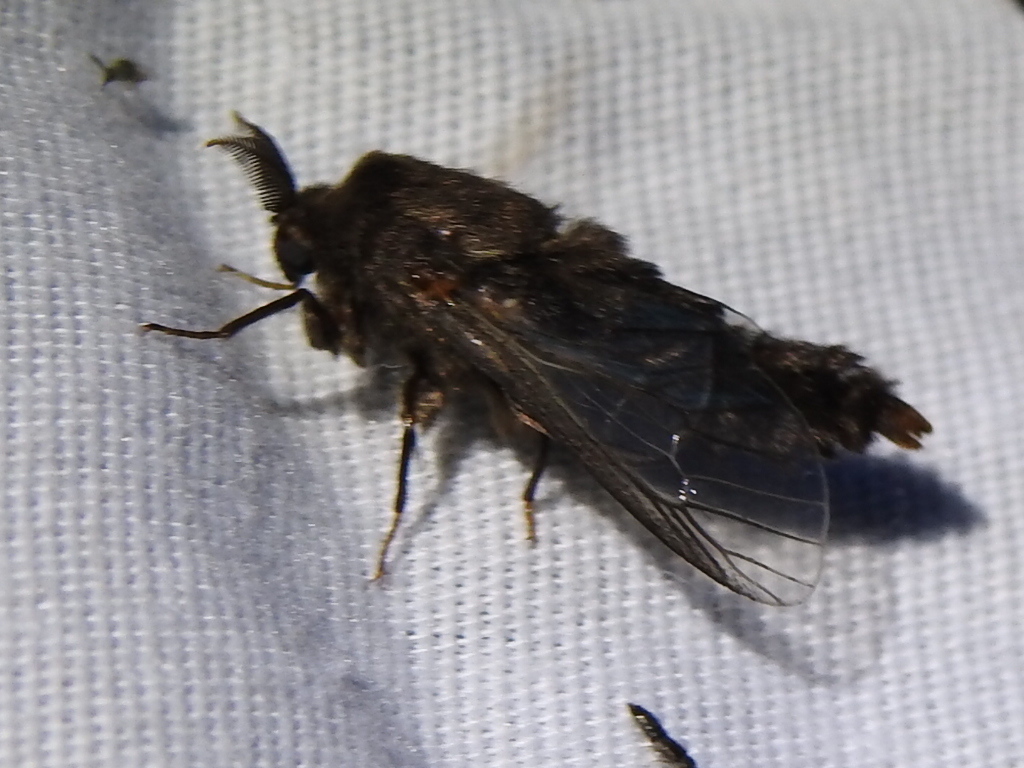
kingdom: Animalia
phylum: Arthropoda
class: Insecta
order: Lepidoptera
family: Psychidae
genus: Thyridopteryx
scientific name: Thyridopteryx ephemeraeformis
